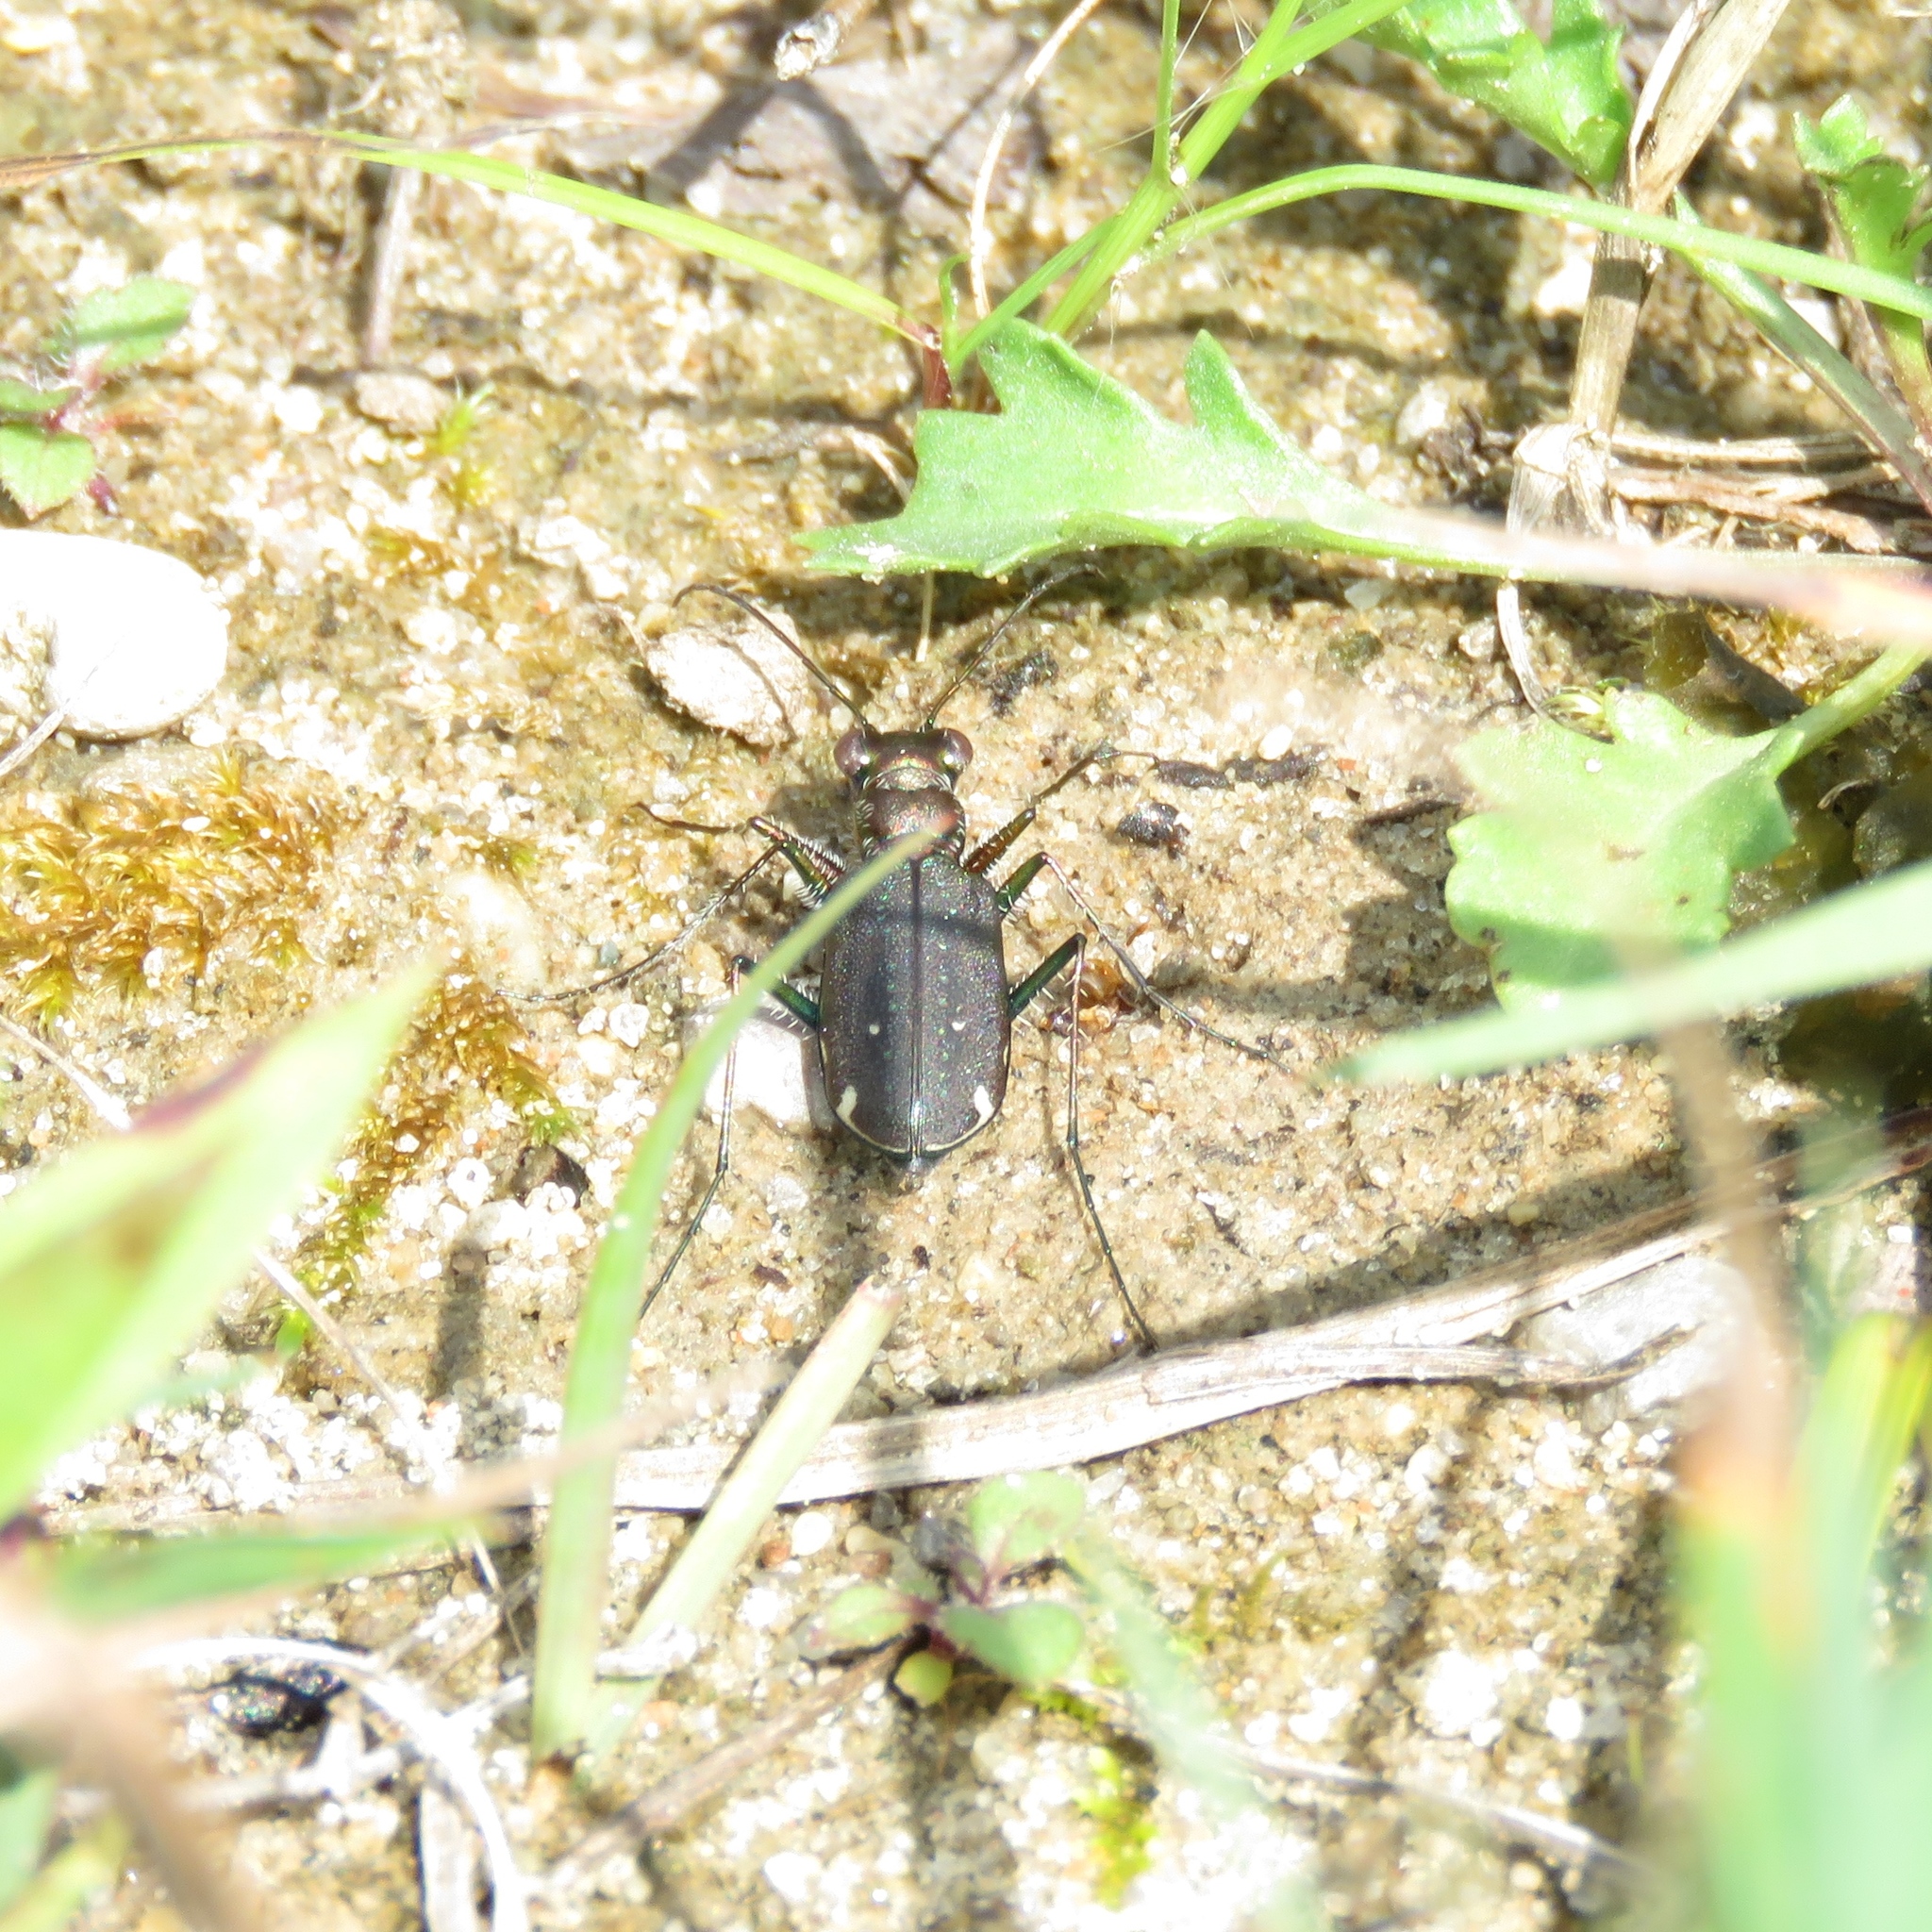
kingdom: Animalia
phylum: Arthropoda
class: Insecta
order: Coleoptera
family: Carabidae
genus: Cicindela
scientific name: Cicindela punctulata
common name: Punctured tiger beetle
